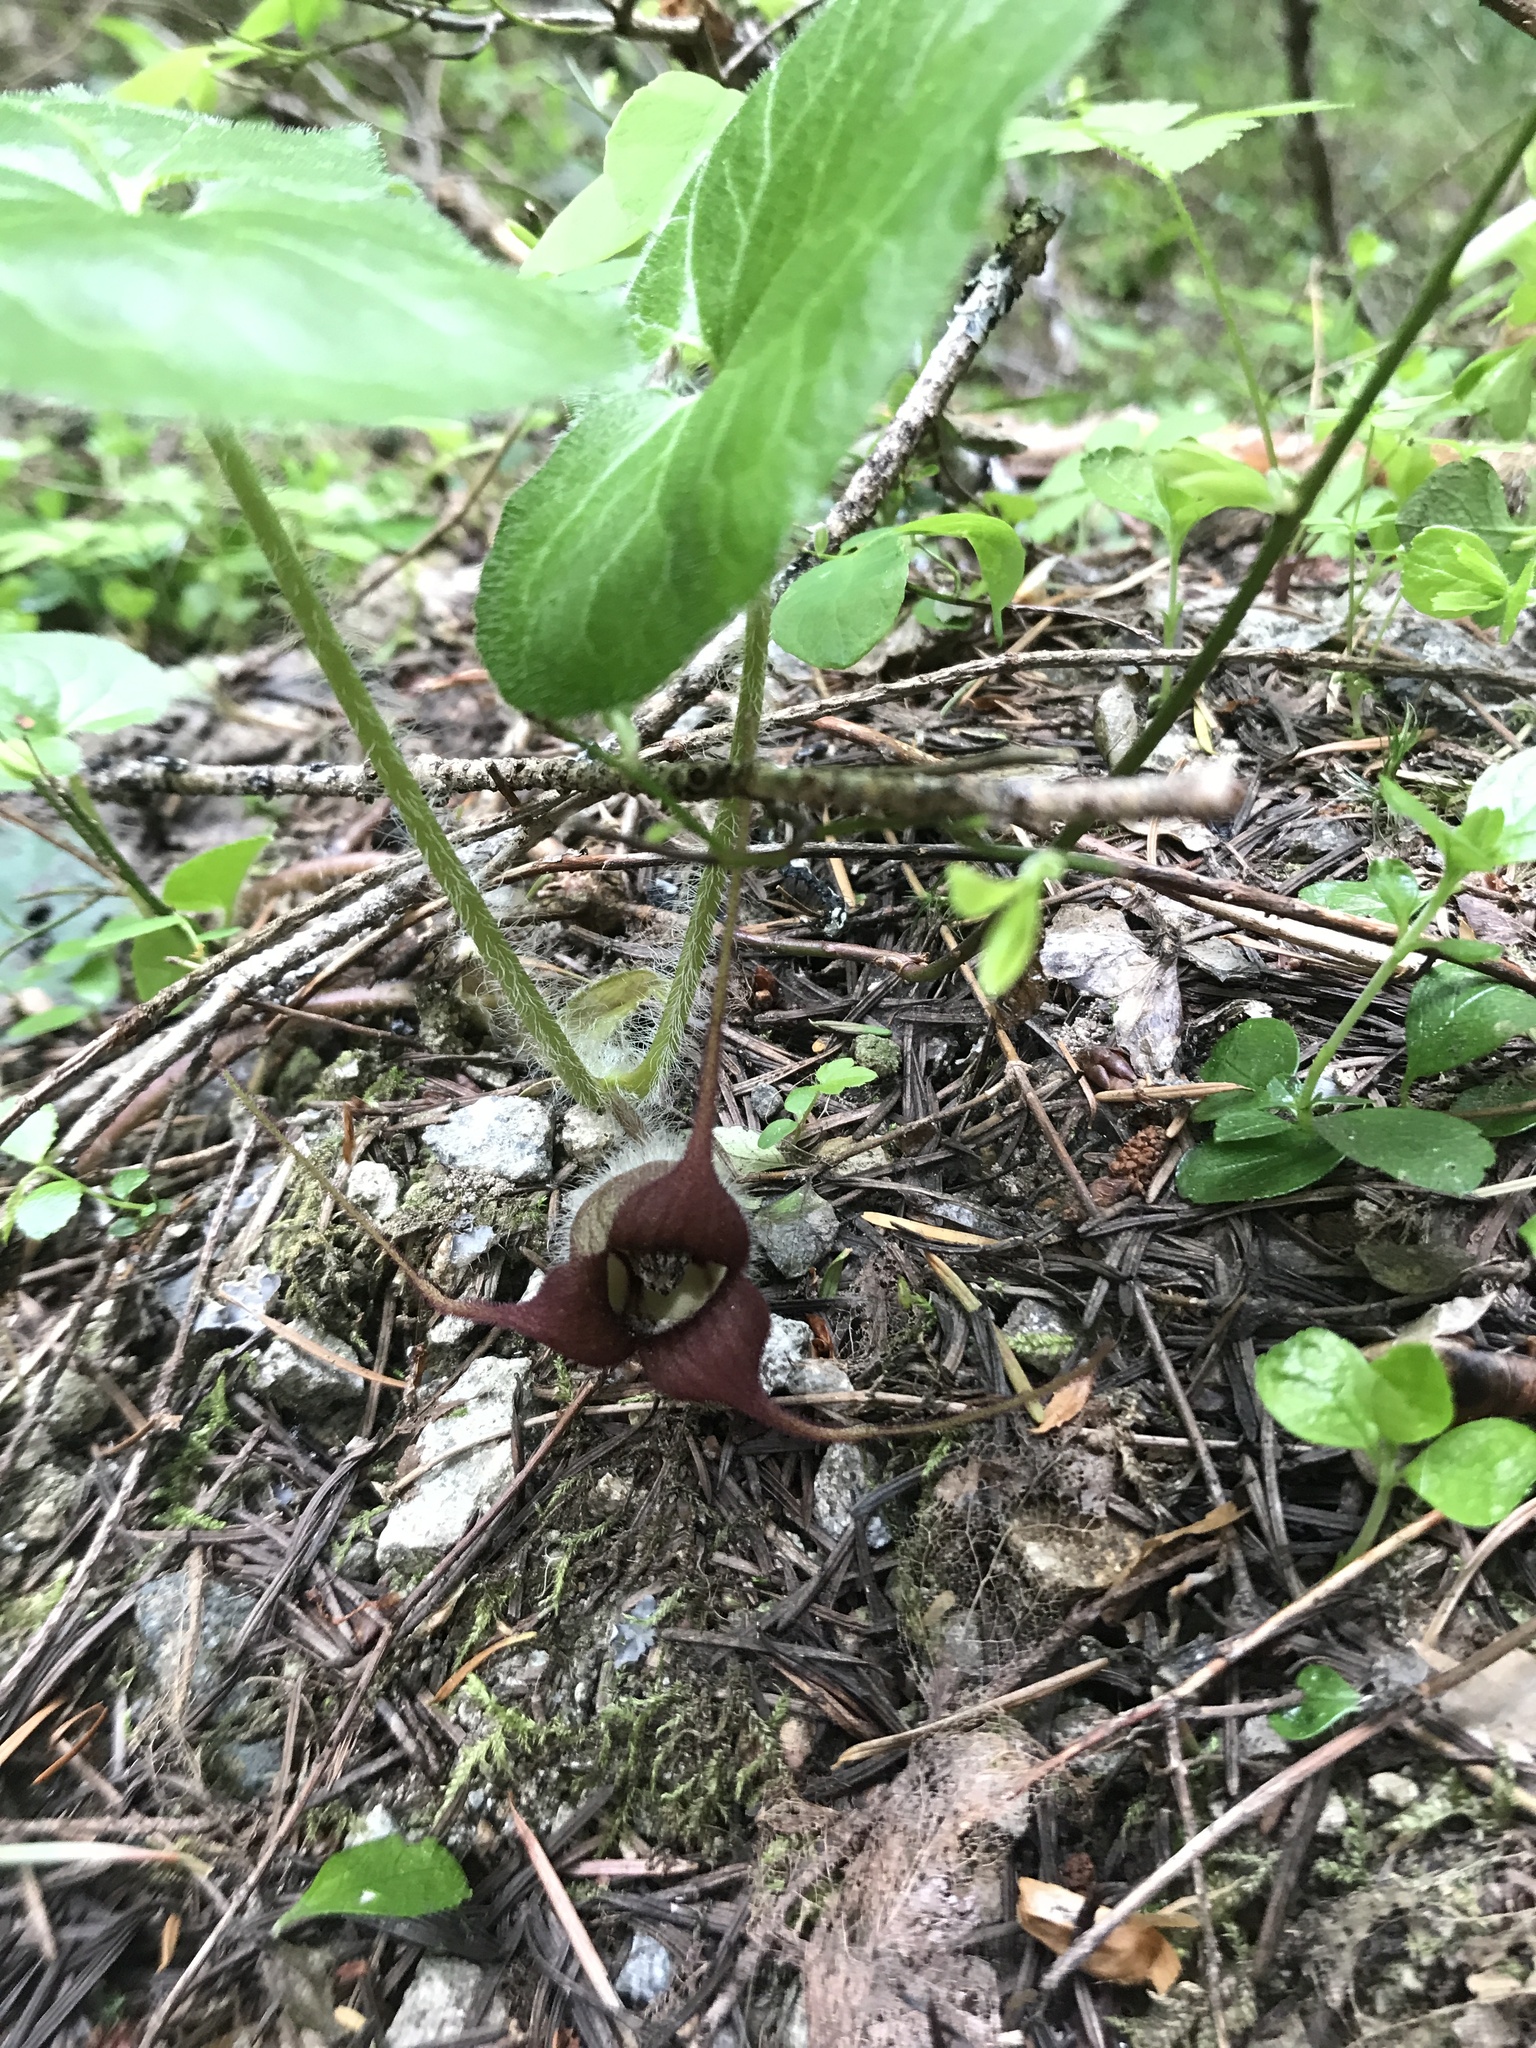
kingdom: Plantae
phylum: Tracheophyta
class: Magnoliopsida
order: Piperales
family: Aristolochiaceae
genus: Asarum
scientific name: Asarum caudatum
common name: Wild ginger
